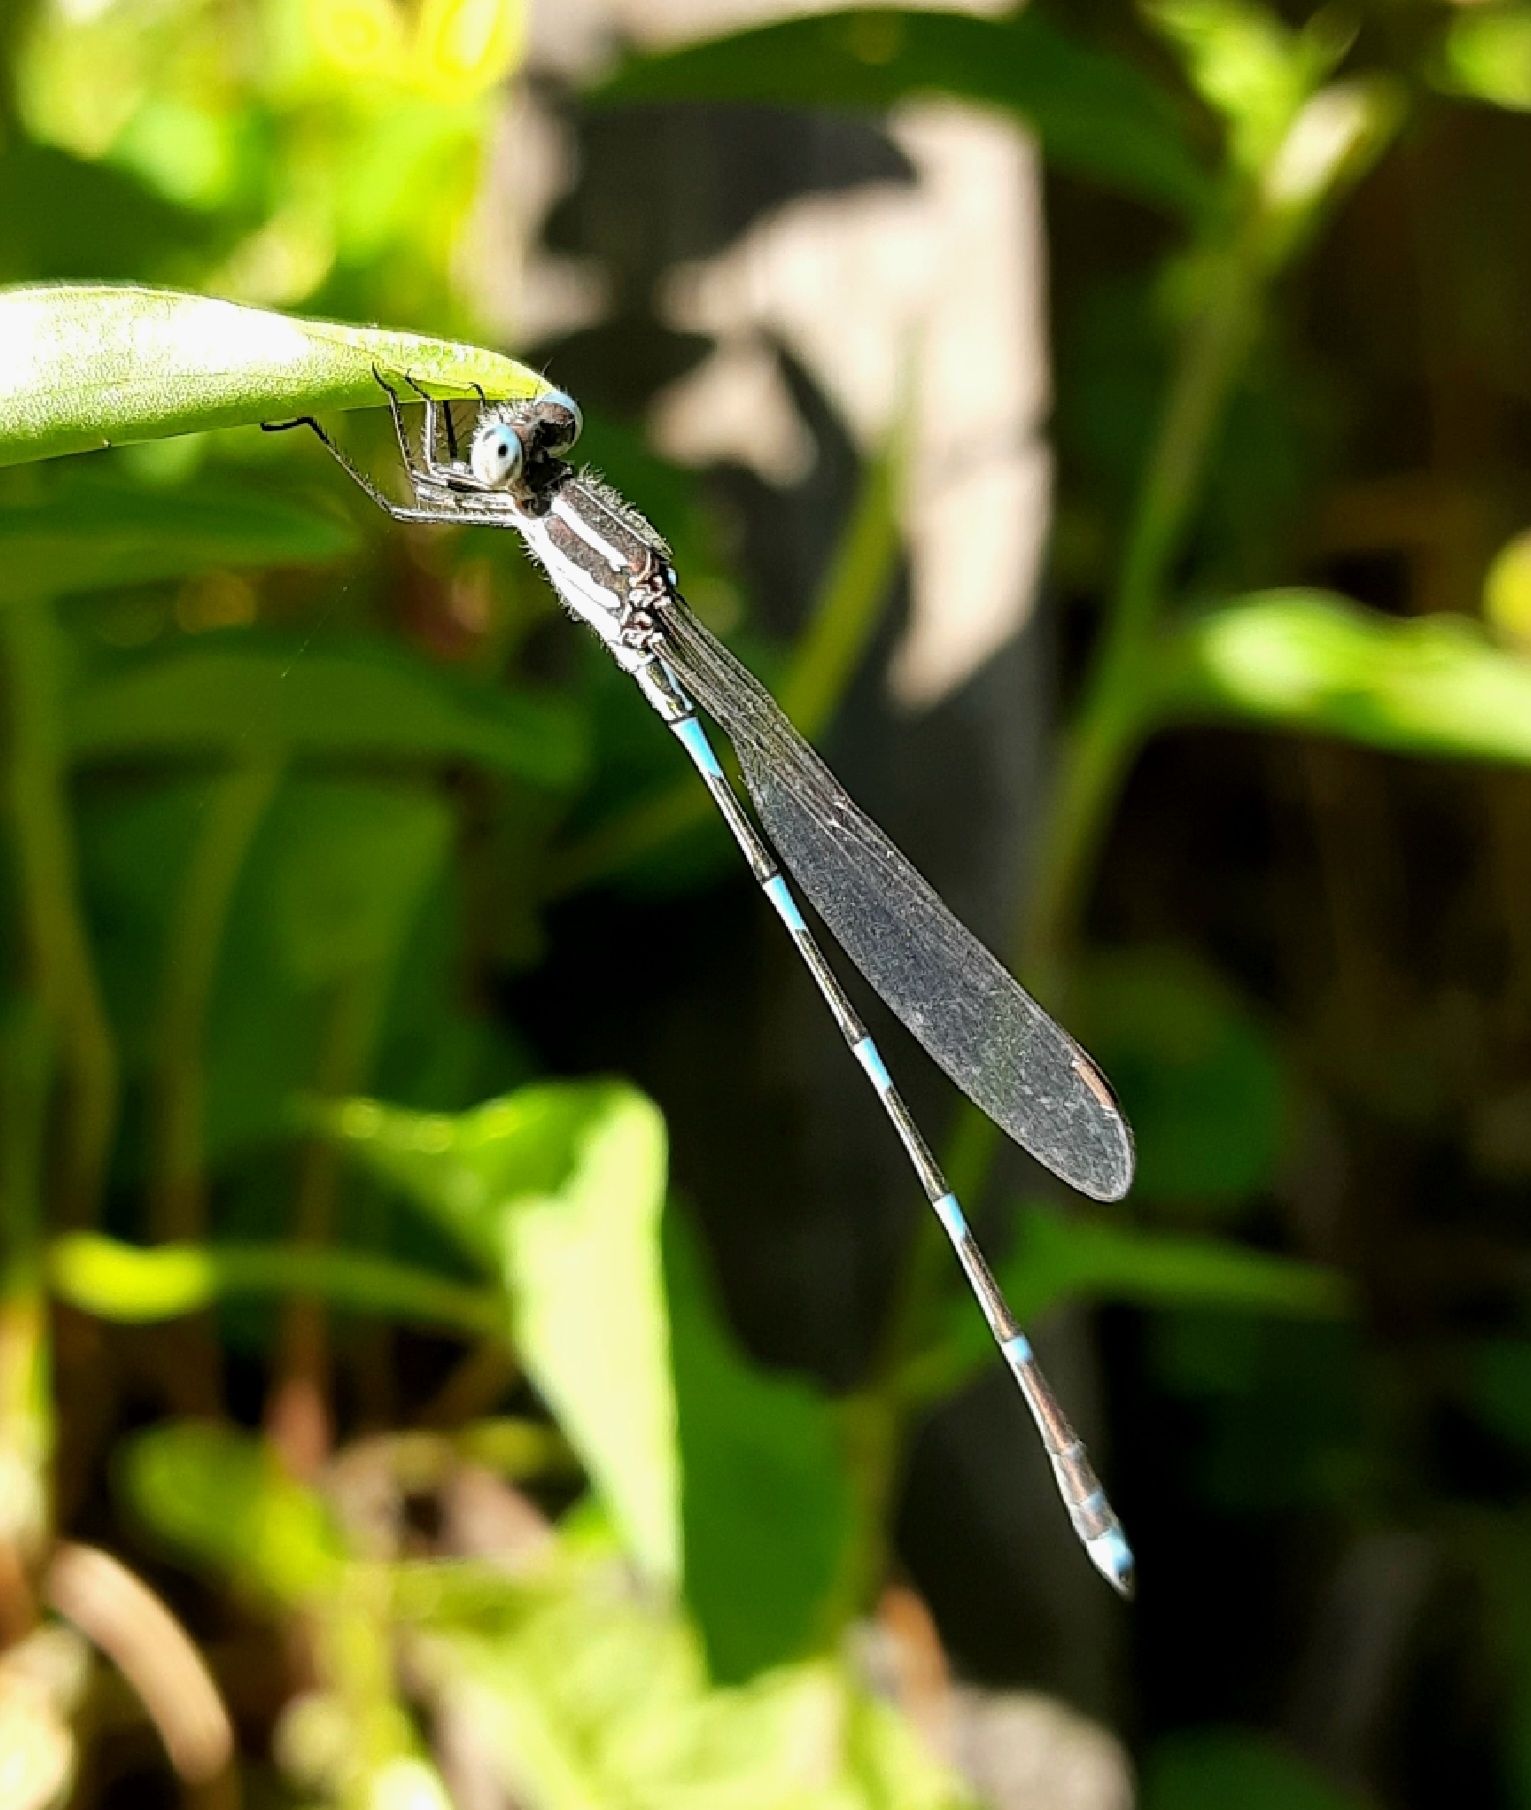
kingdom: Animalia
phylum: Arthropoda
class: Insecta
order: Odonata
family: Lestidae
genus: Austrolestes
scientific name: Austrolestes leda
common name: Wandering ringtail
